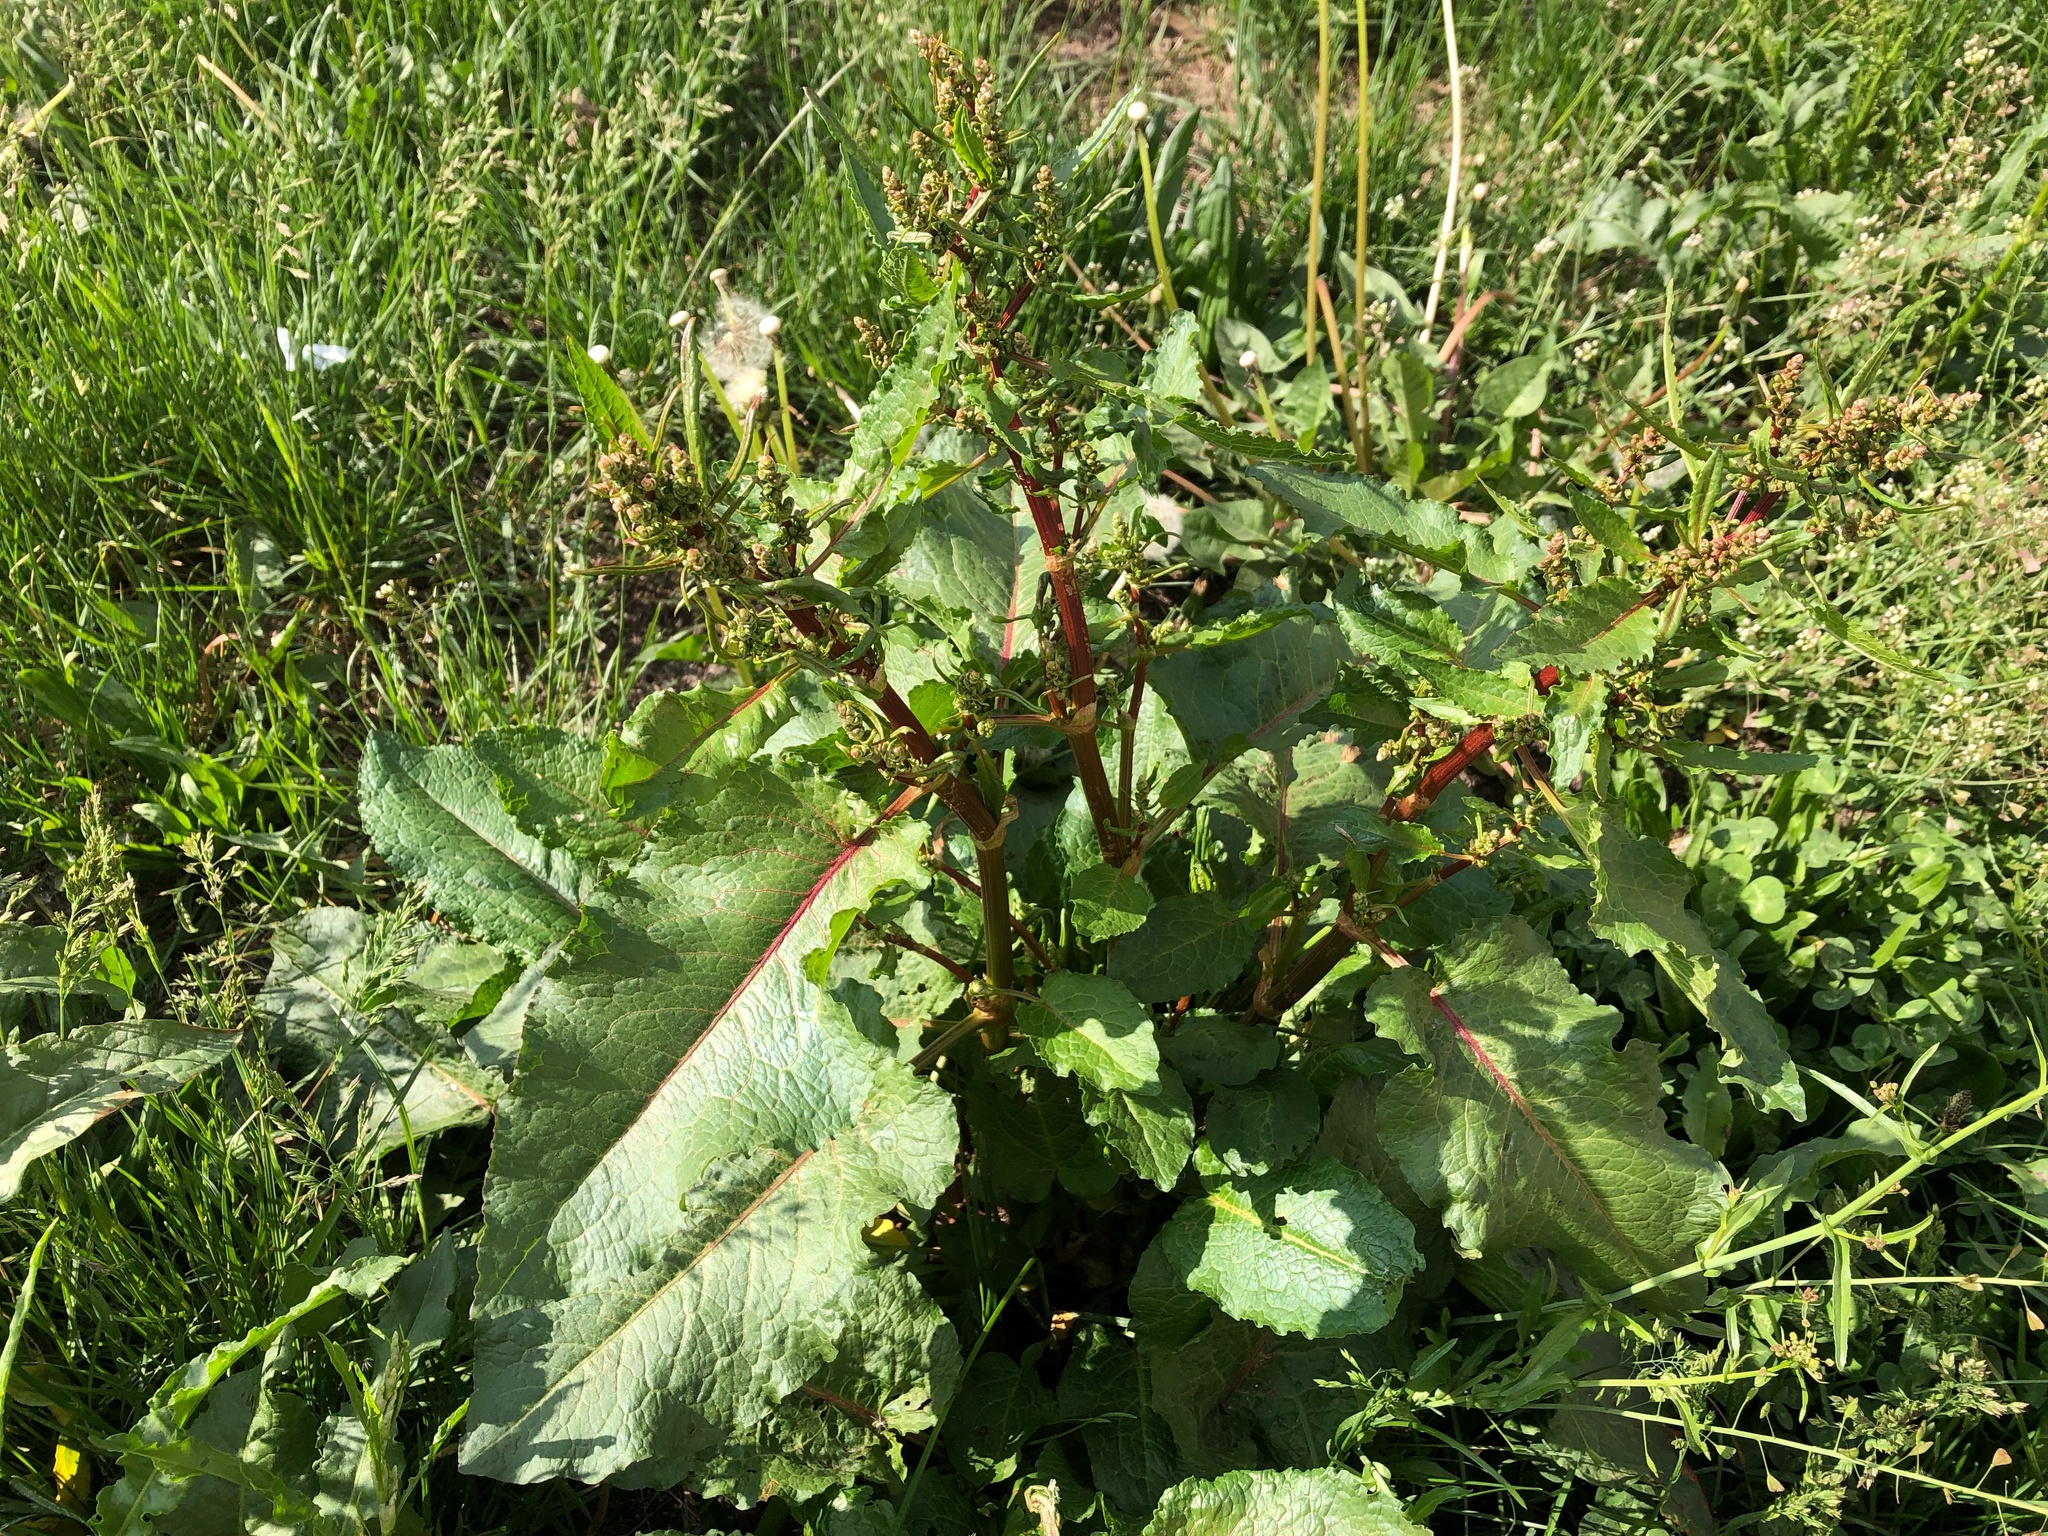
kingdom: Plantae
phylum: Tracheophyta
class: Magnoliopsida
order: Caryophyllales
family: Polygonaceae
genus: Rumex
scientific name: Rumex obtusifolius
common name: Bitter dock
